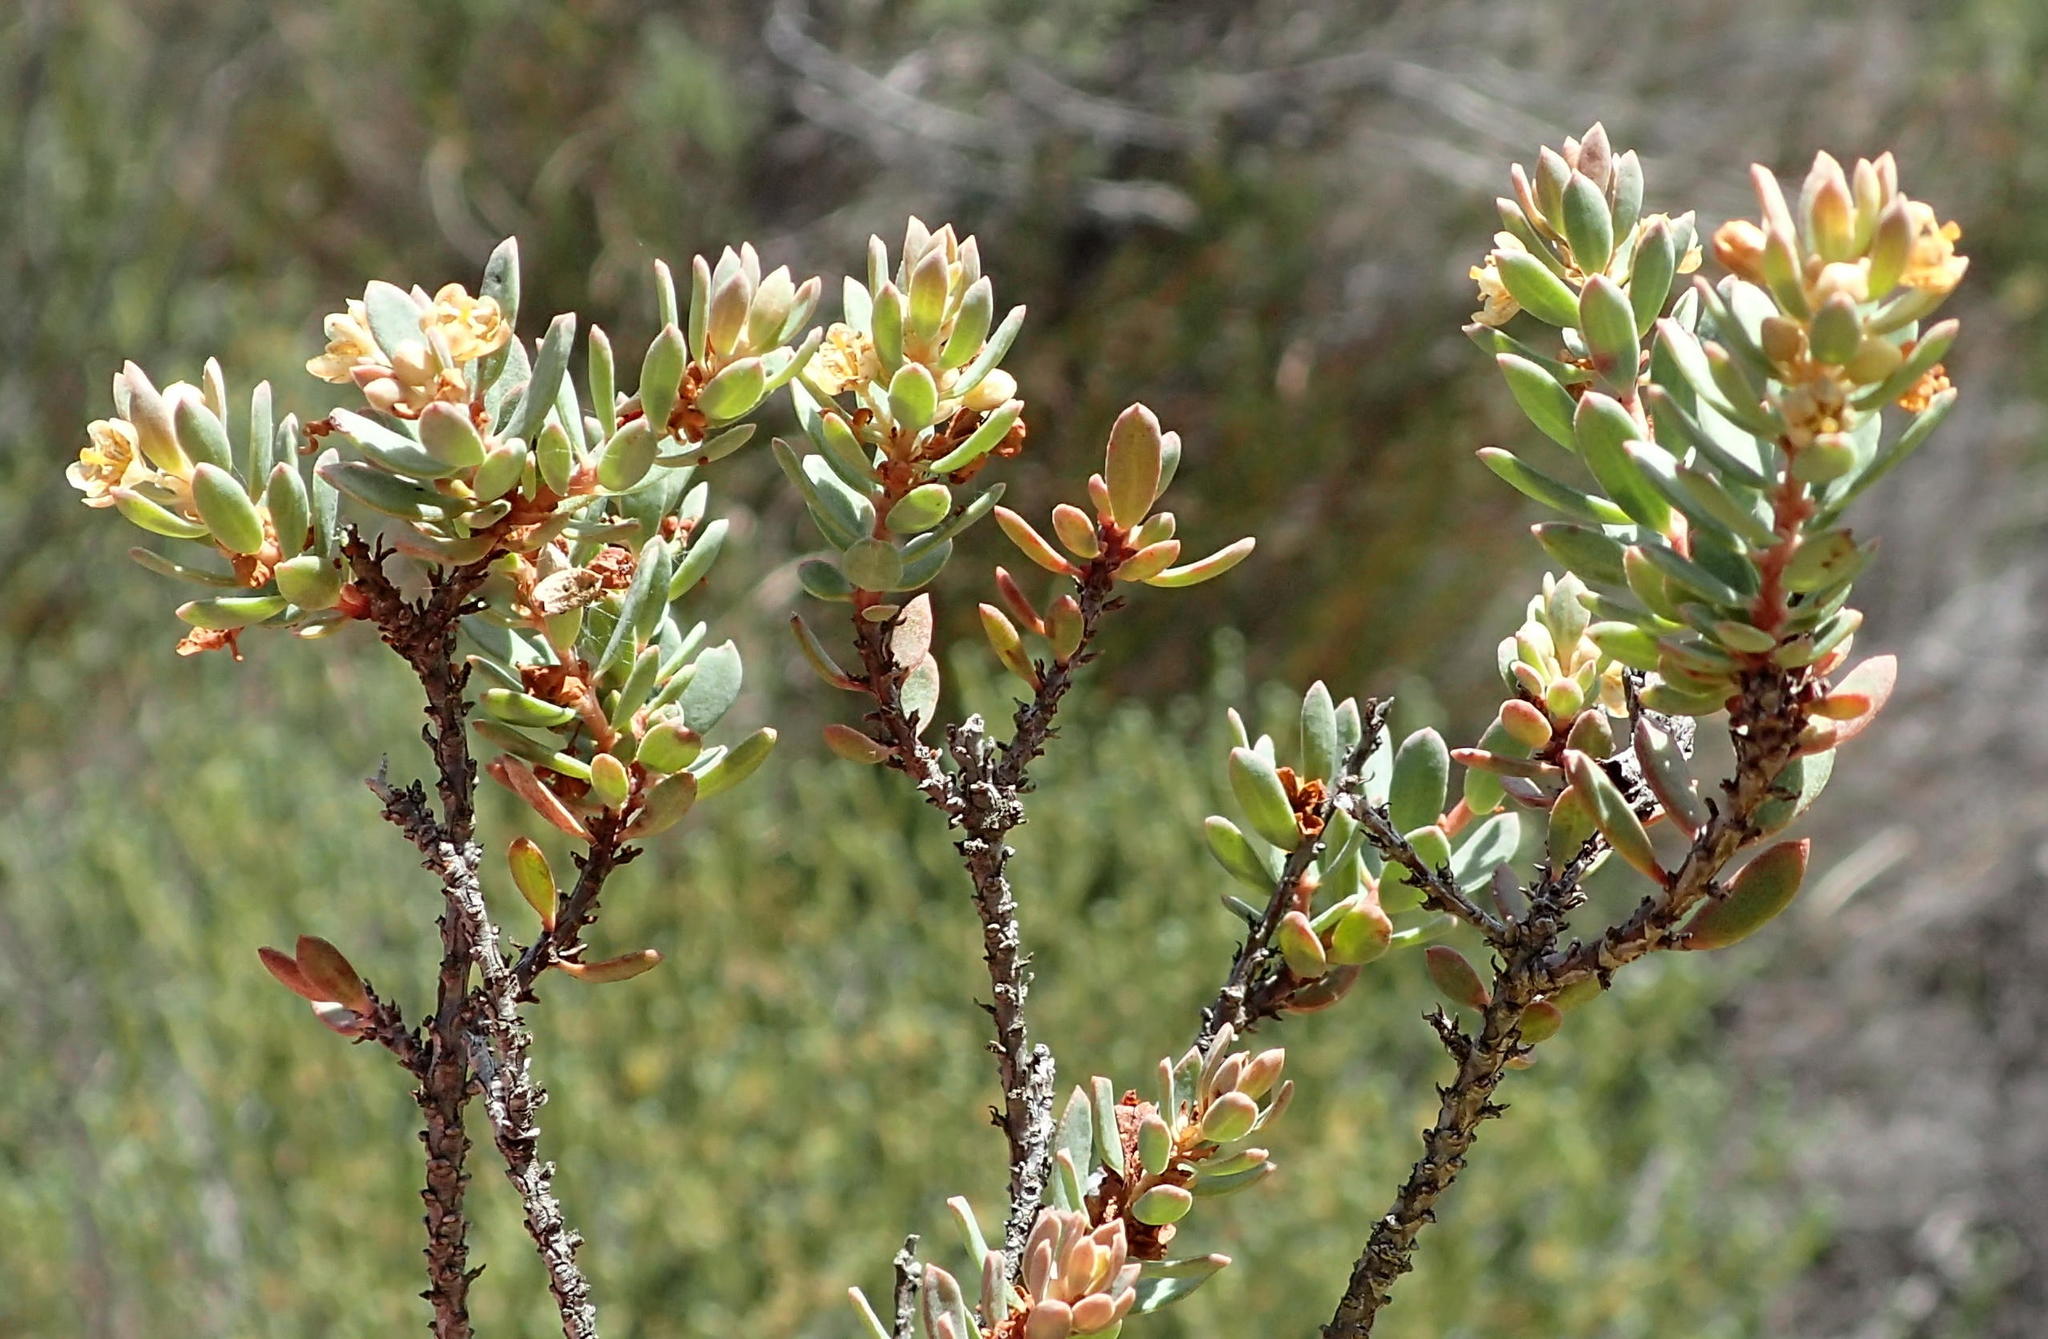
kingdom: Plantae
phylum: Tracheophyta
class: Magnoliopsida
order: Malpighiales
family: Peraceae
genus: Clutia
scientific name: Clutia laxa
